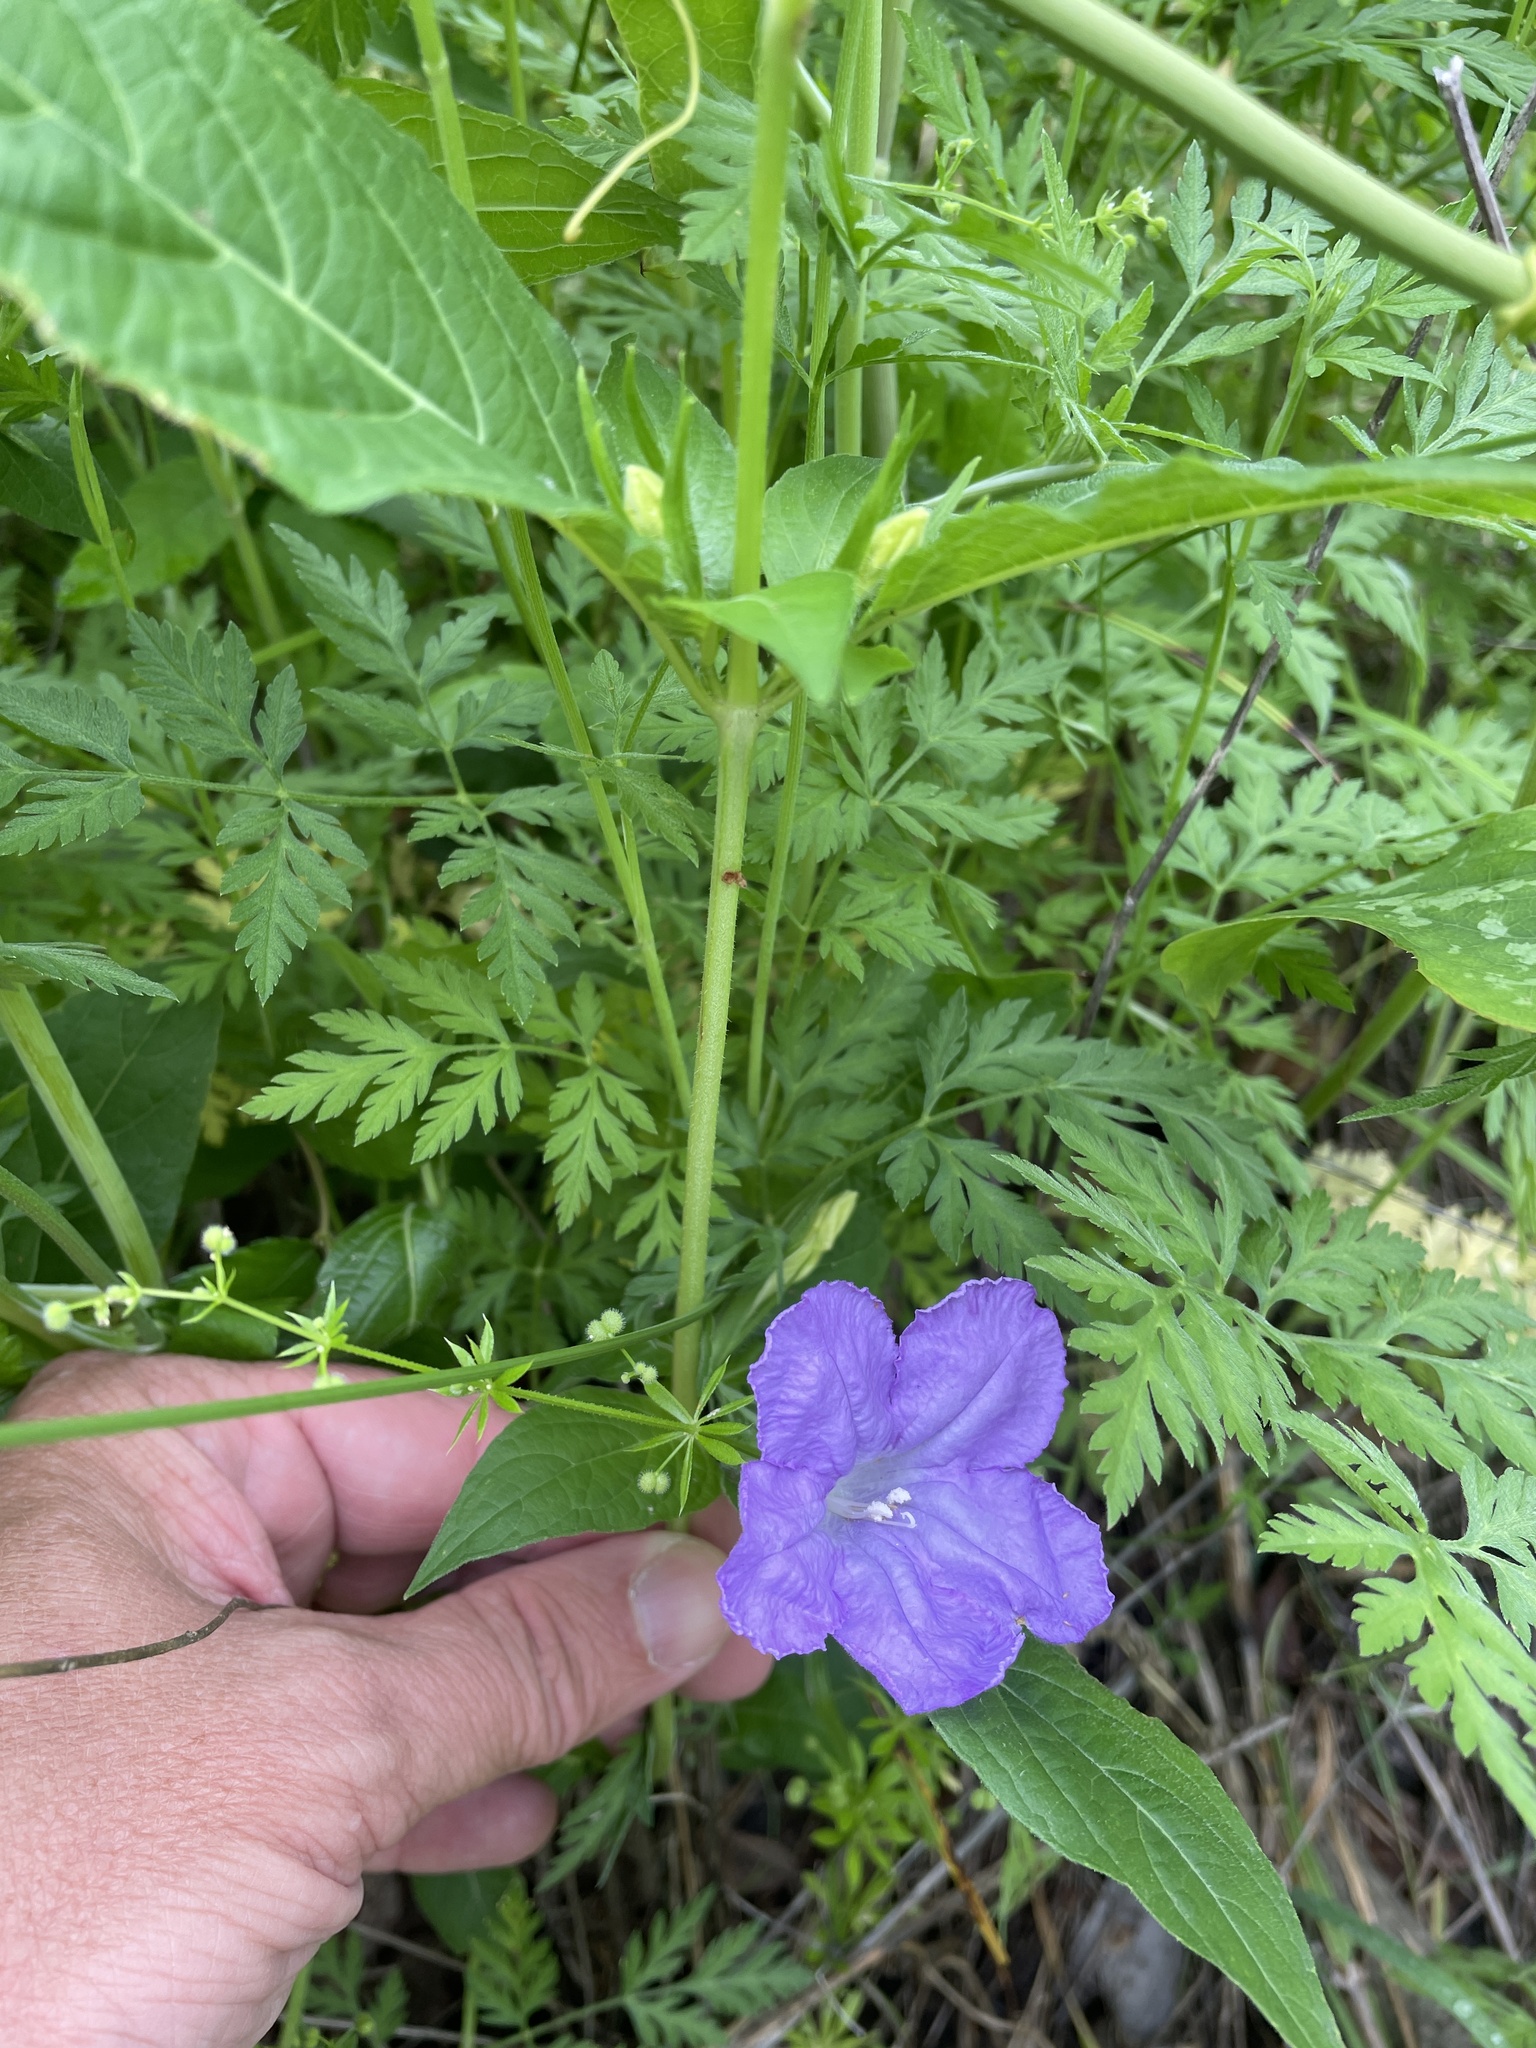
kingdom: Plantae
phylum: Tracheophyta
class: Magnoliopsida
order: Lamiales
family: Acanthaceae
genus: Ruellia
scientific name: Ruellia strepens
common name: Limestone wild petunia
